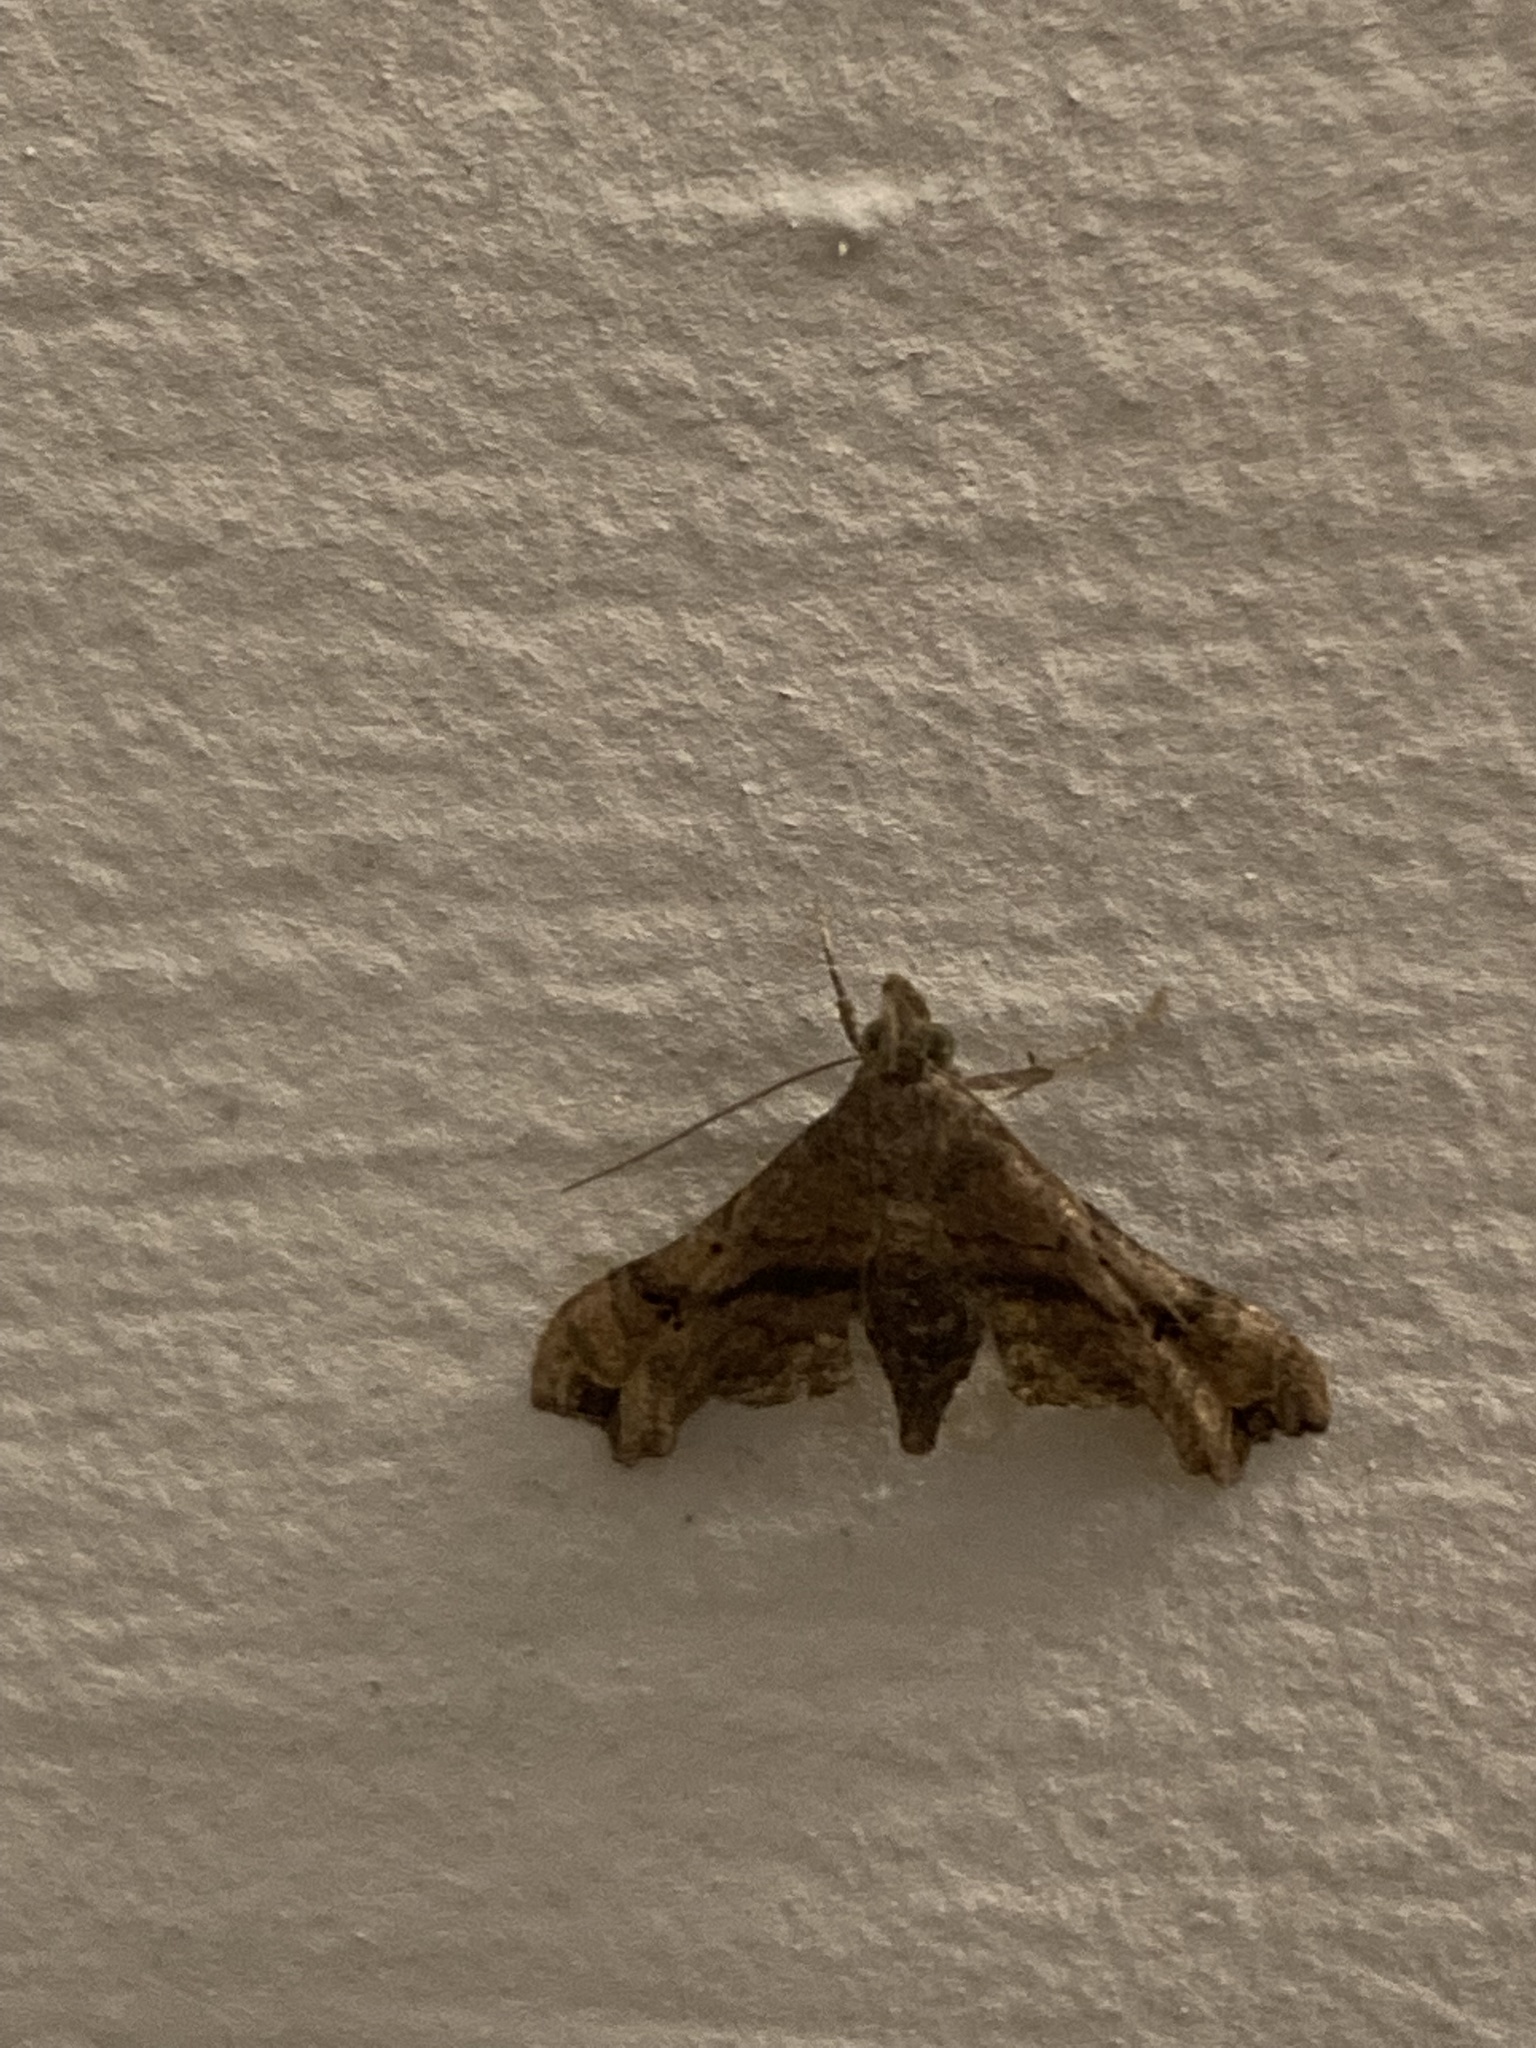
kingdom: Animalia
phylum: Arthropoda
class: Insecta
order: Lepidoptera
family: Erebidae
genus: Palthis
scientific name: Palthis asopialis
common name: Faint-spotted palthis moth
